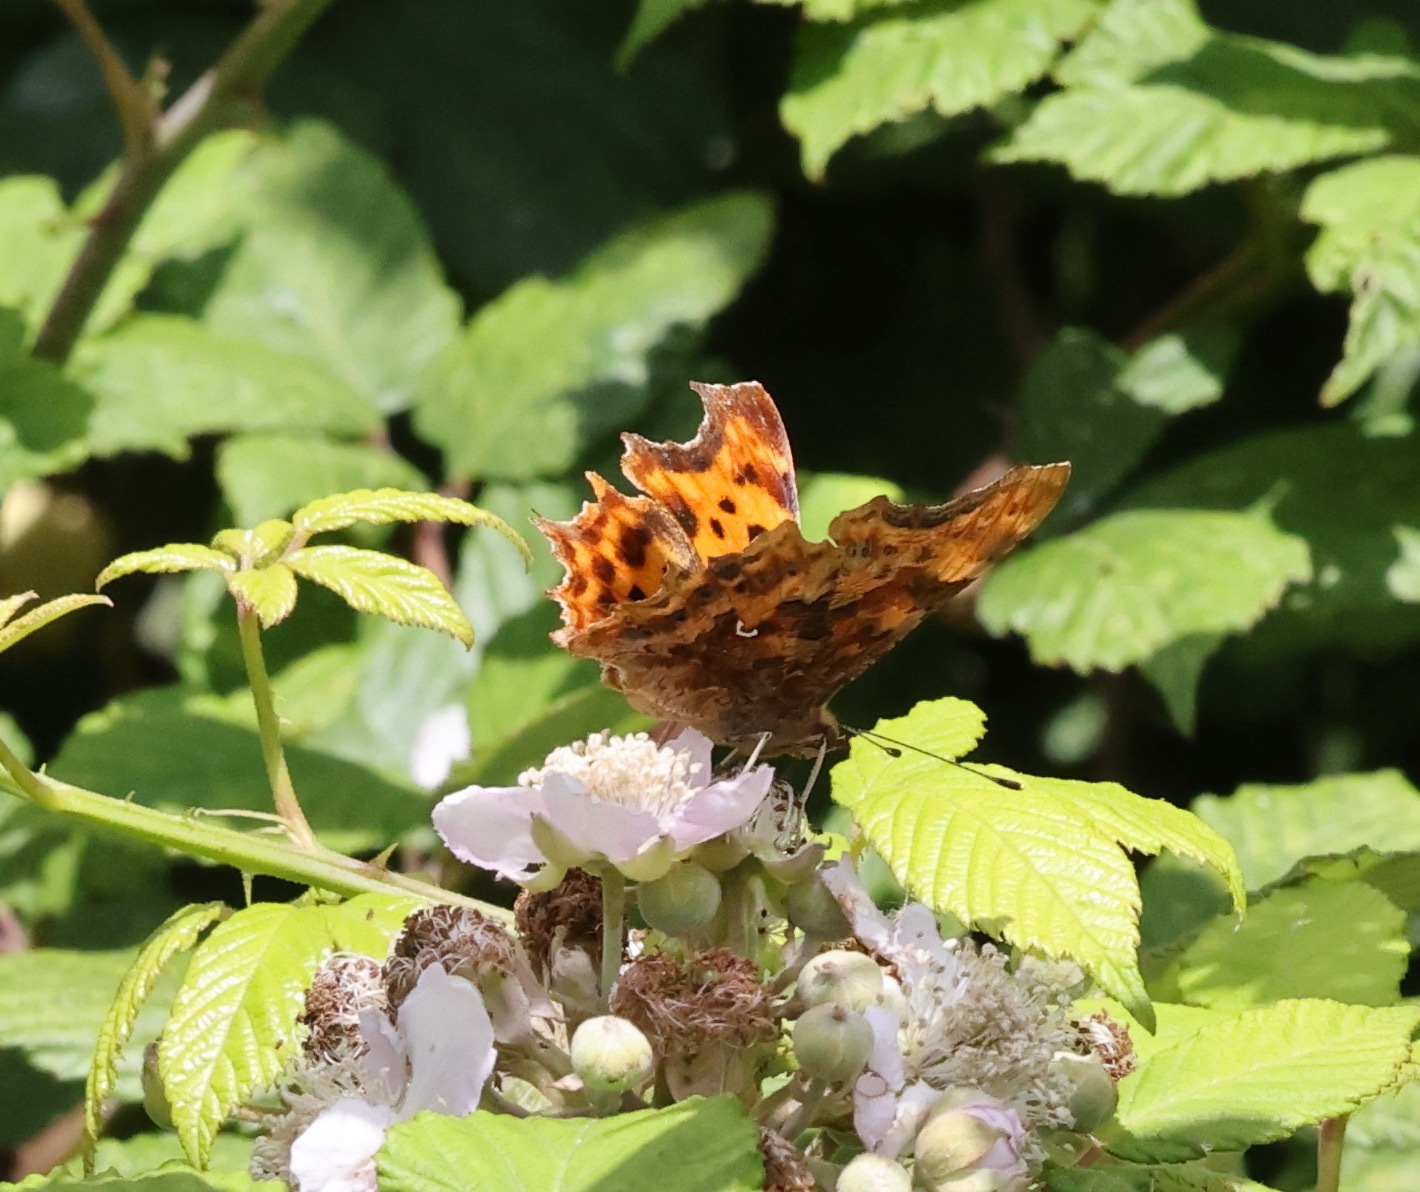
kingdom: Animalia
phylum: Arthropoda
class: Insecta
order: Lepidoptera
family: Nymphalidae
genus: Polygonia
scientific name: Polygonia c-album
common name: Comma
